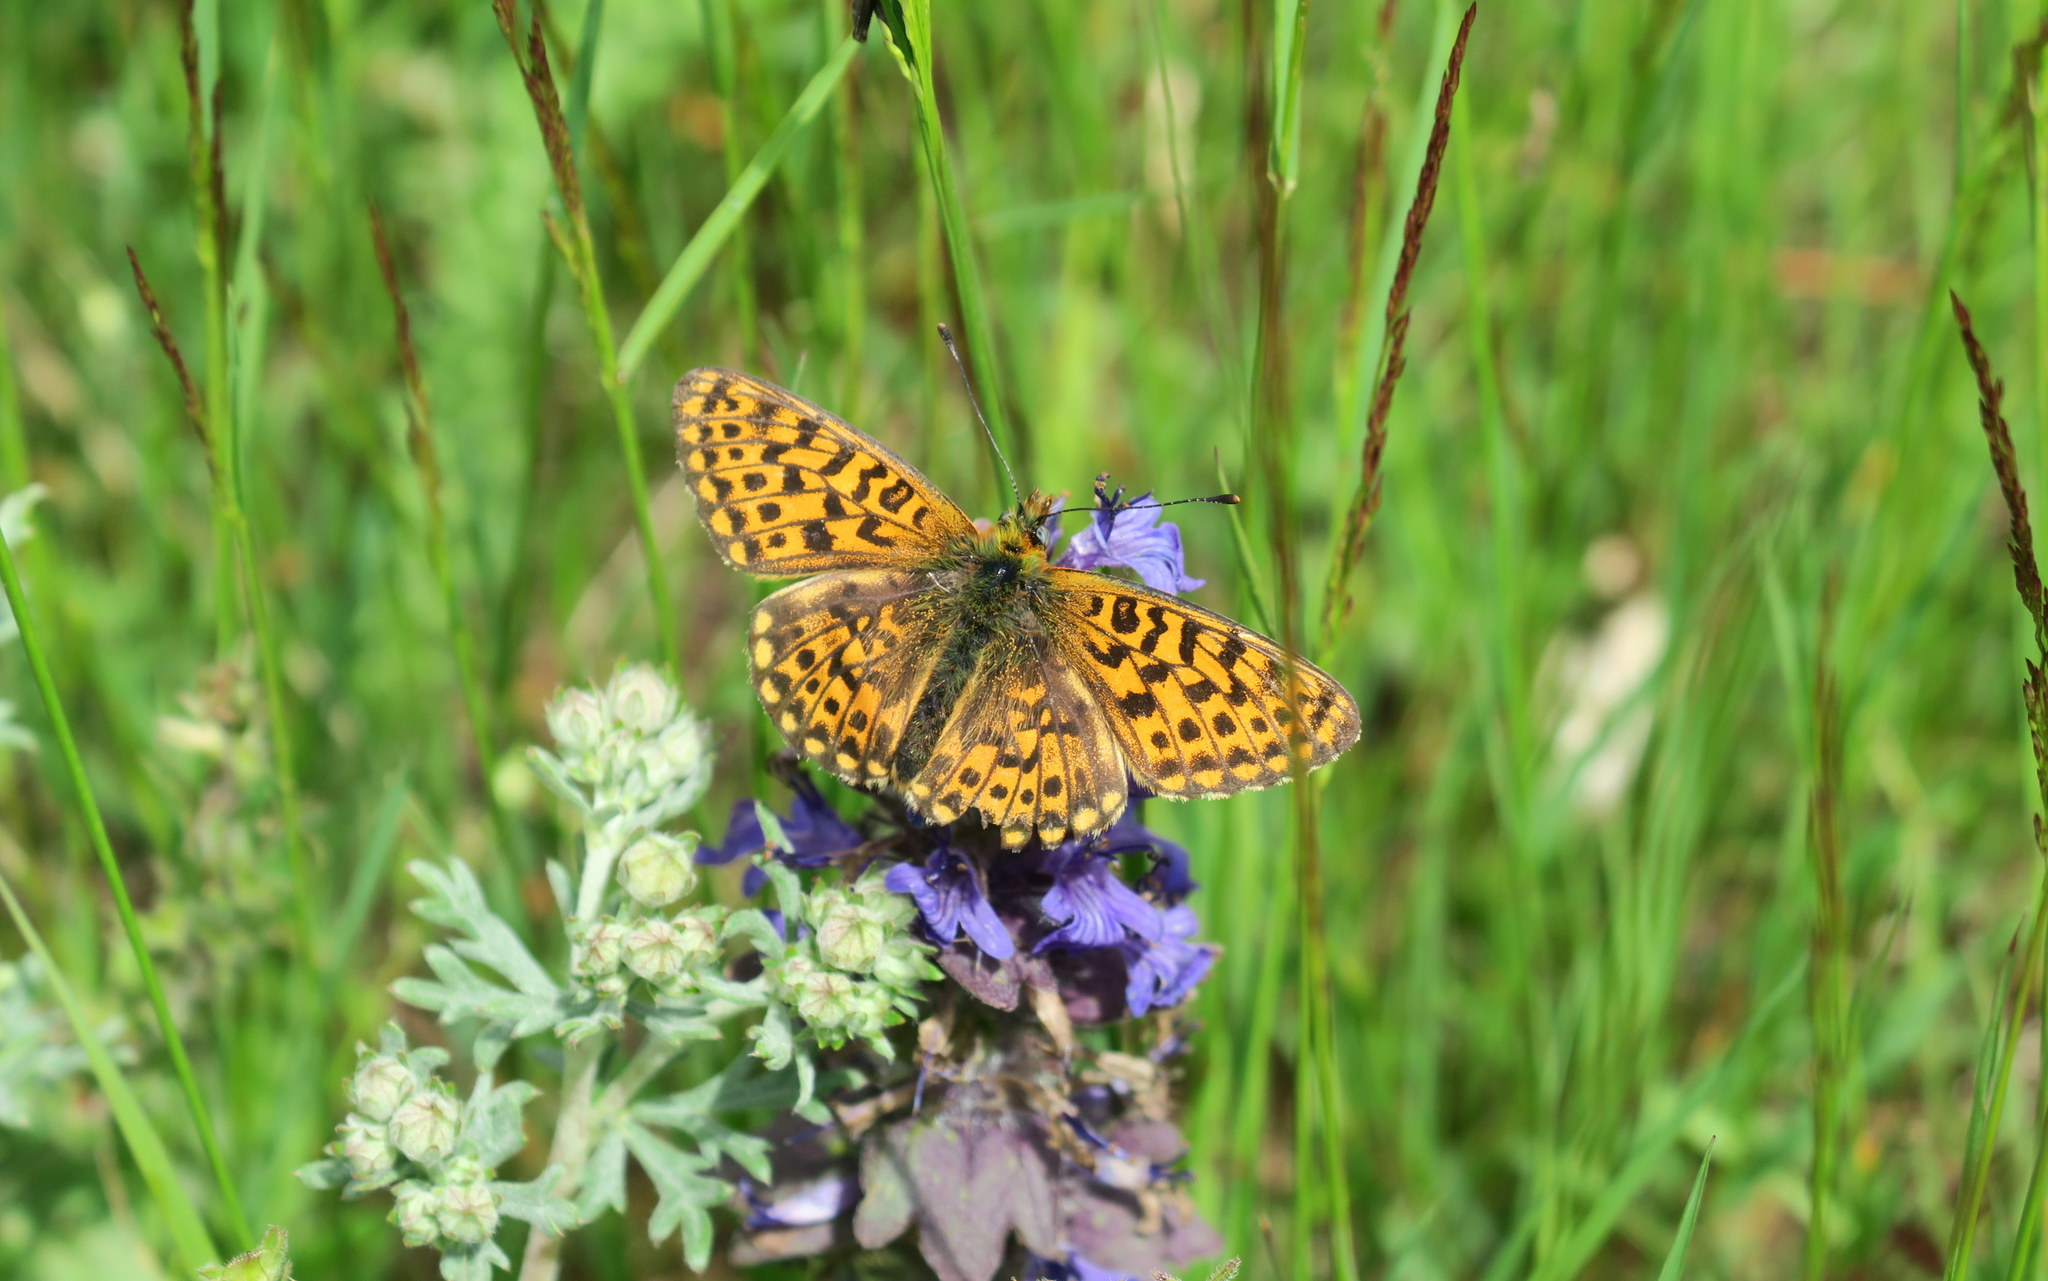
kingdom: Animalia
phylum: Arthropoda
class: Insecta
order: Lepidoptera
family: Nymphalidae
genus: Clossiana
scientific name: Clossiana euphrosyne
